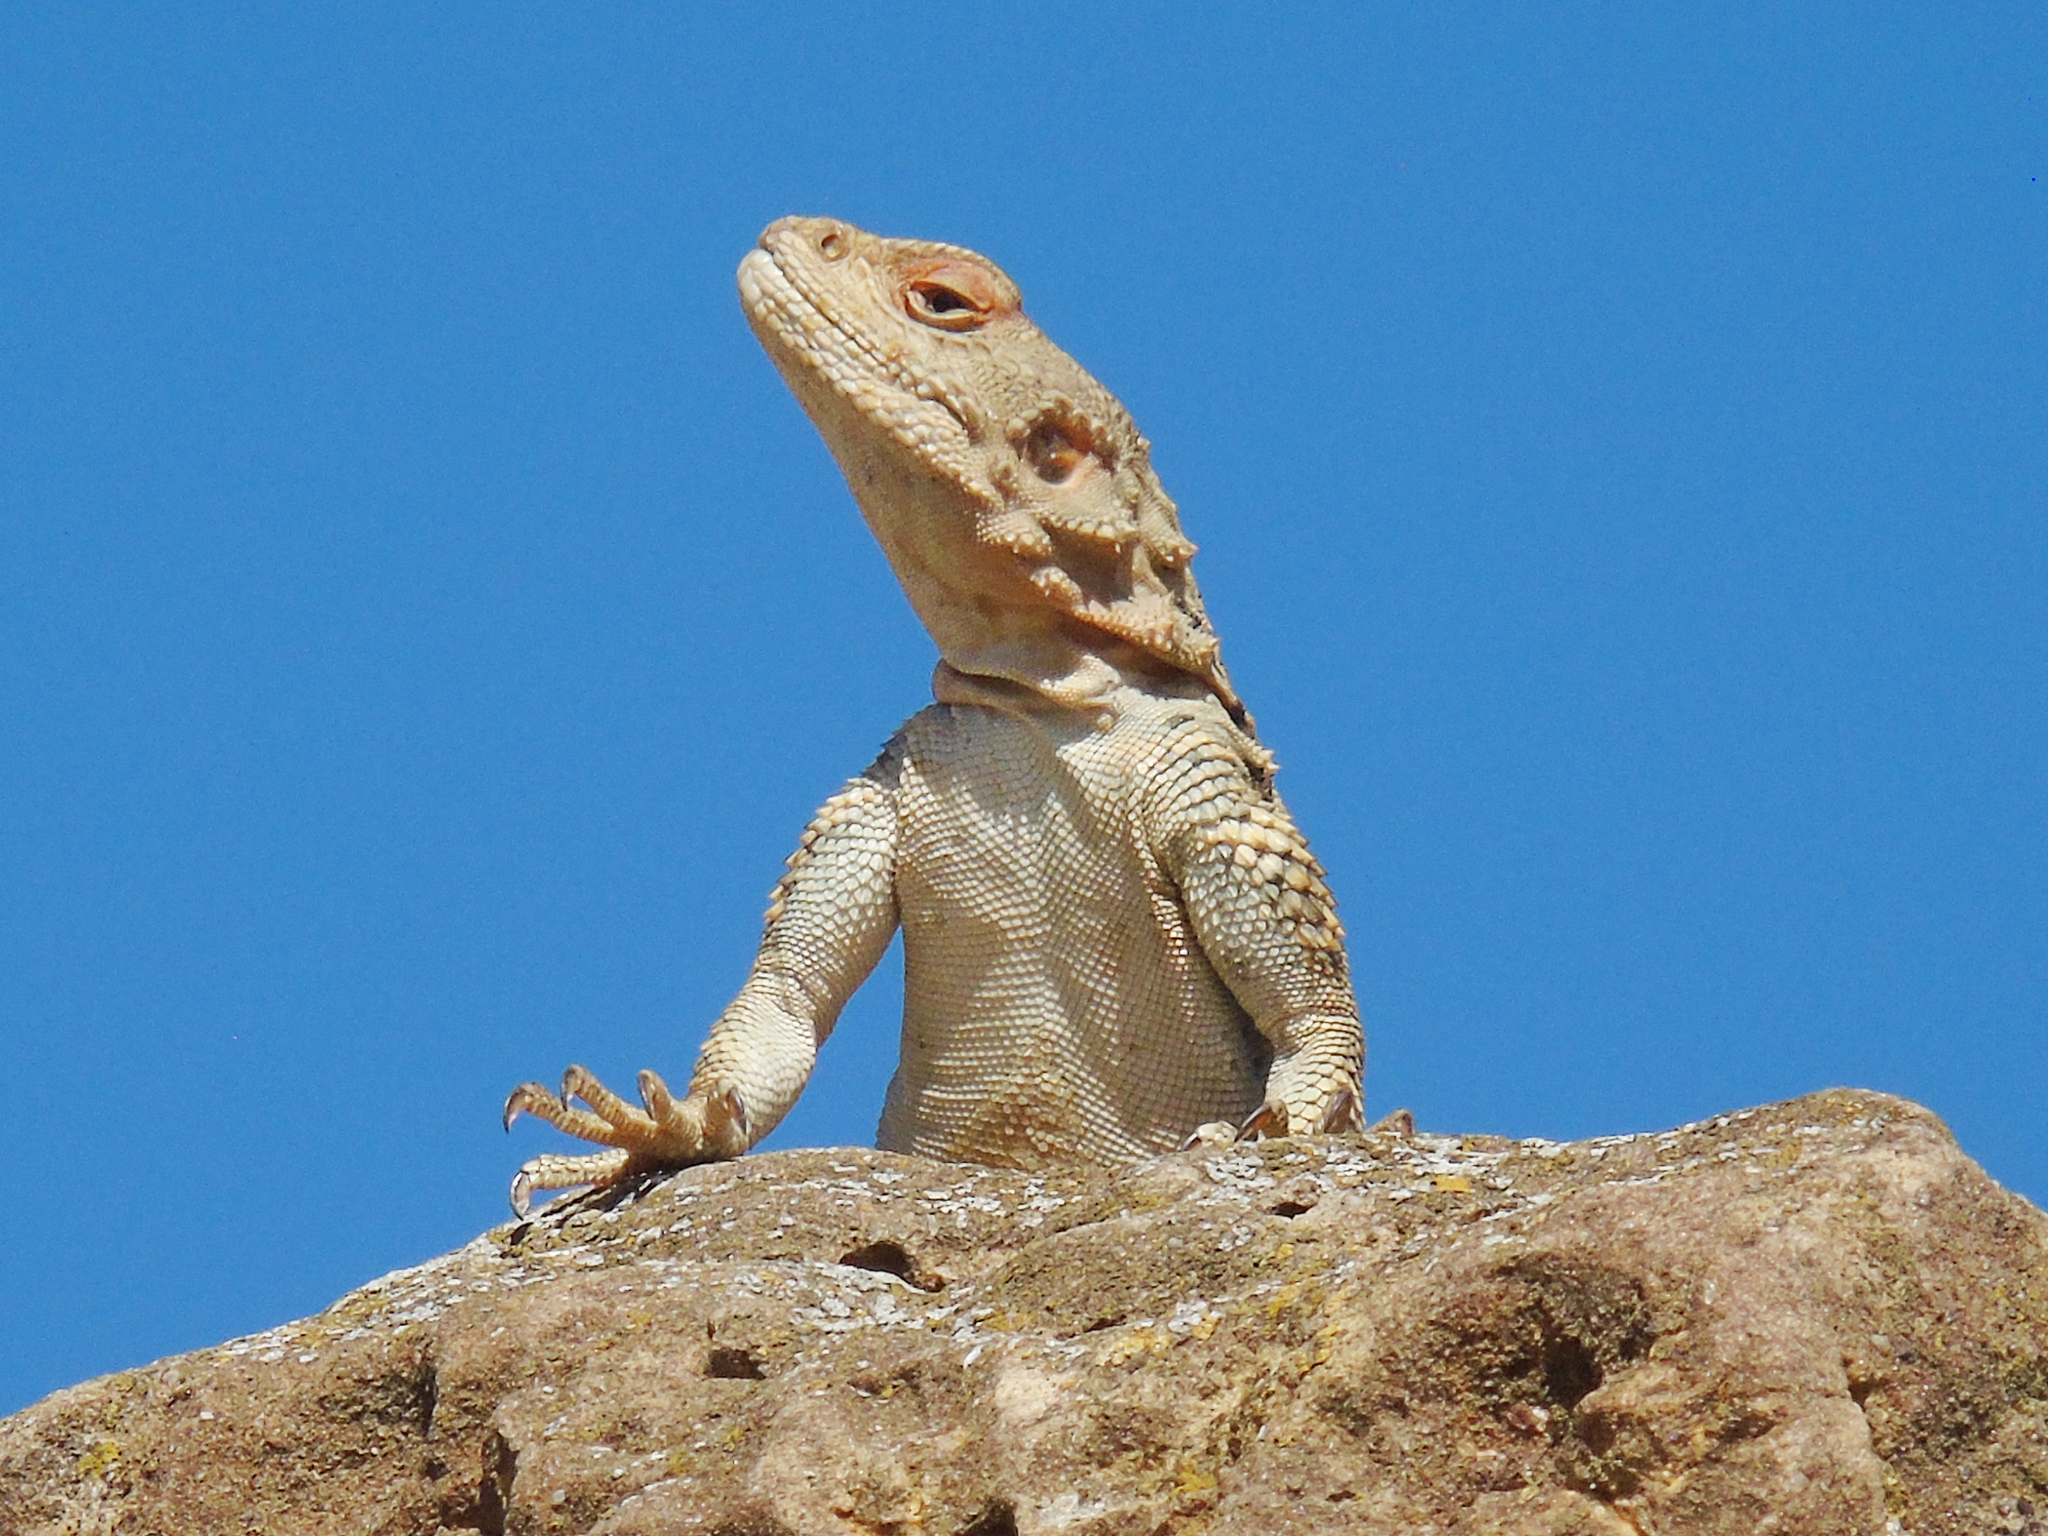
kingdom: Animalia
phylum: Chordata
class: Squamata
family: Agamidae
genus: Paralaudakia
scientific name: Paralaudakia caucasia
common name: Caucasian agama
